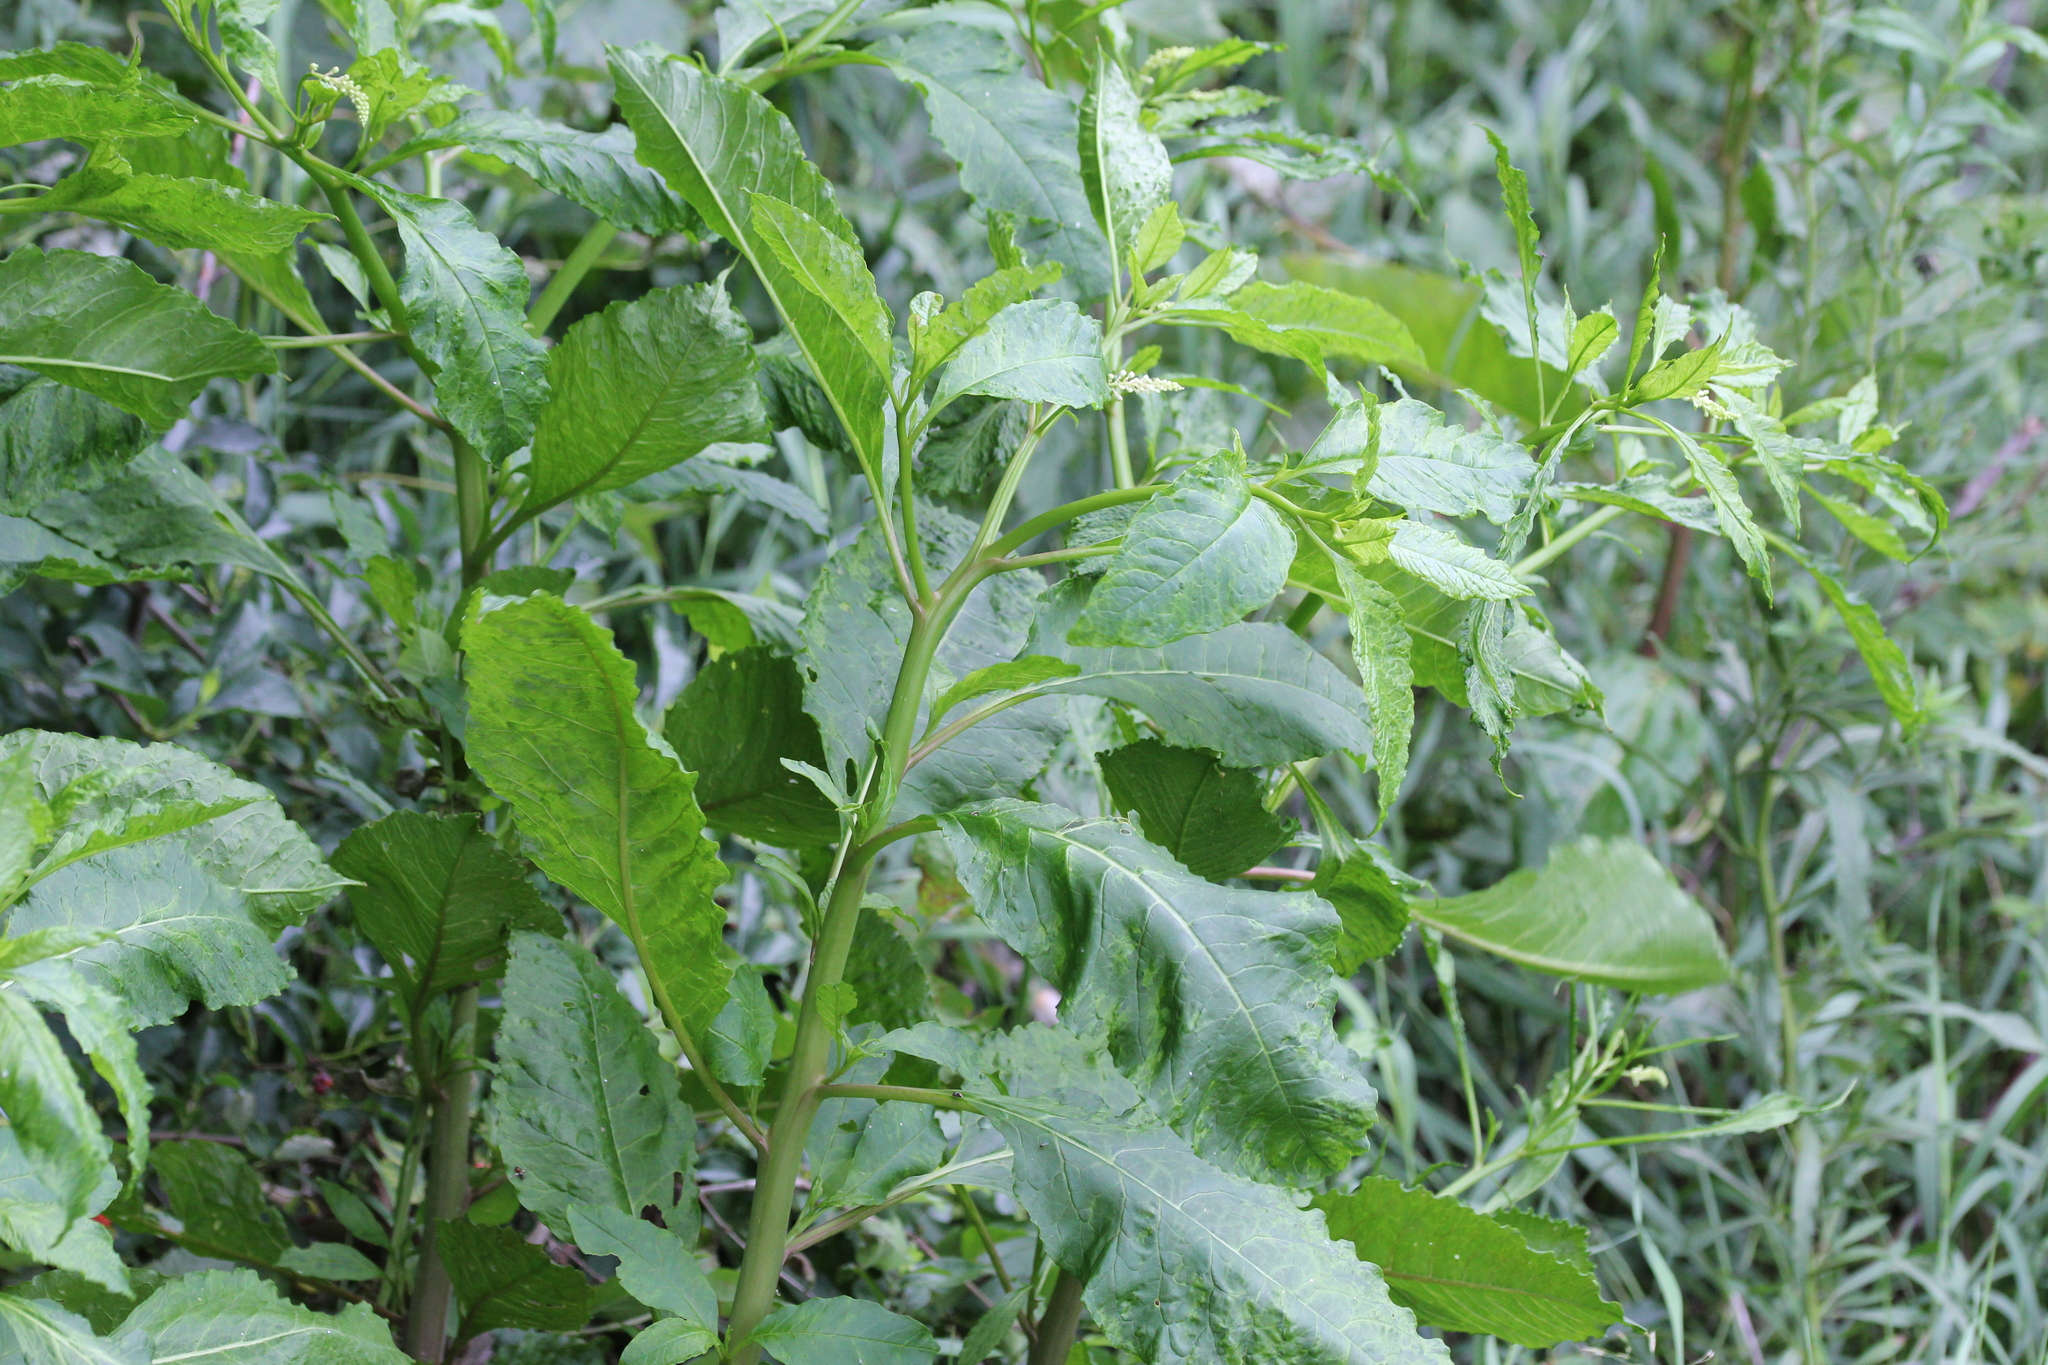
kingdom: Plantae
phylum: Tracheophyta
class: Magnoliopsida
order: Caryophyllales
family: Phytolaccaceae
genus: Phytolacca
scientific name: Phytolacca americana
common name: American pokeweed
